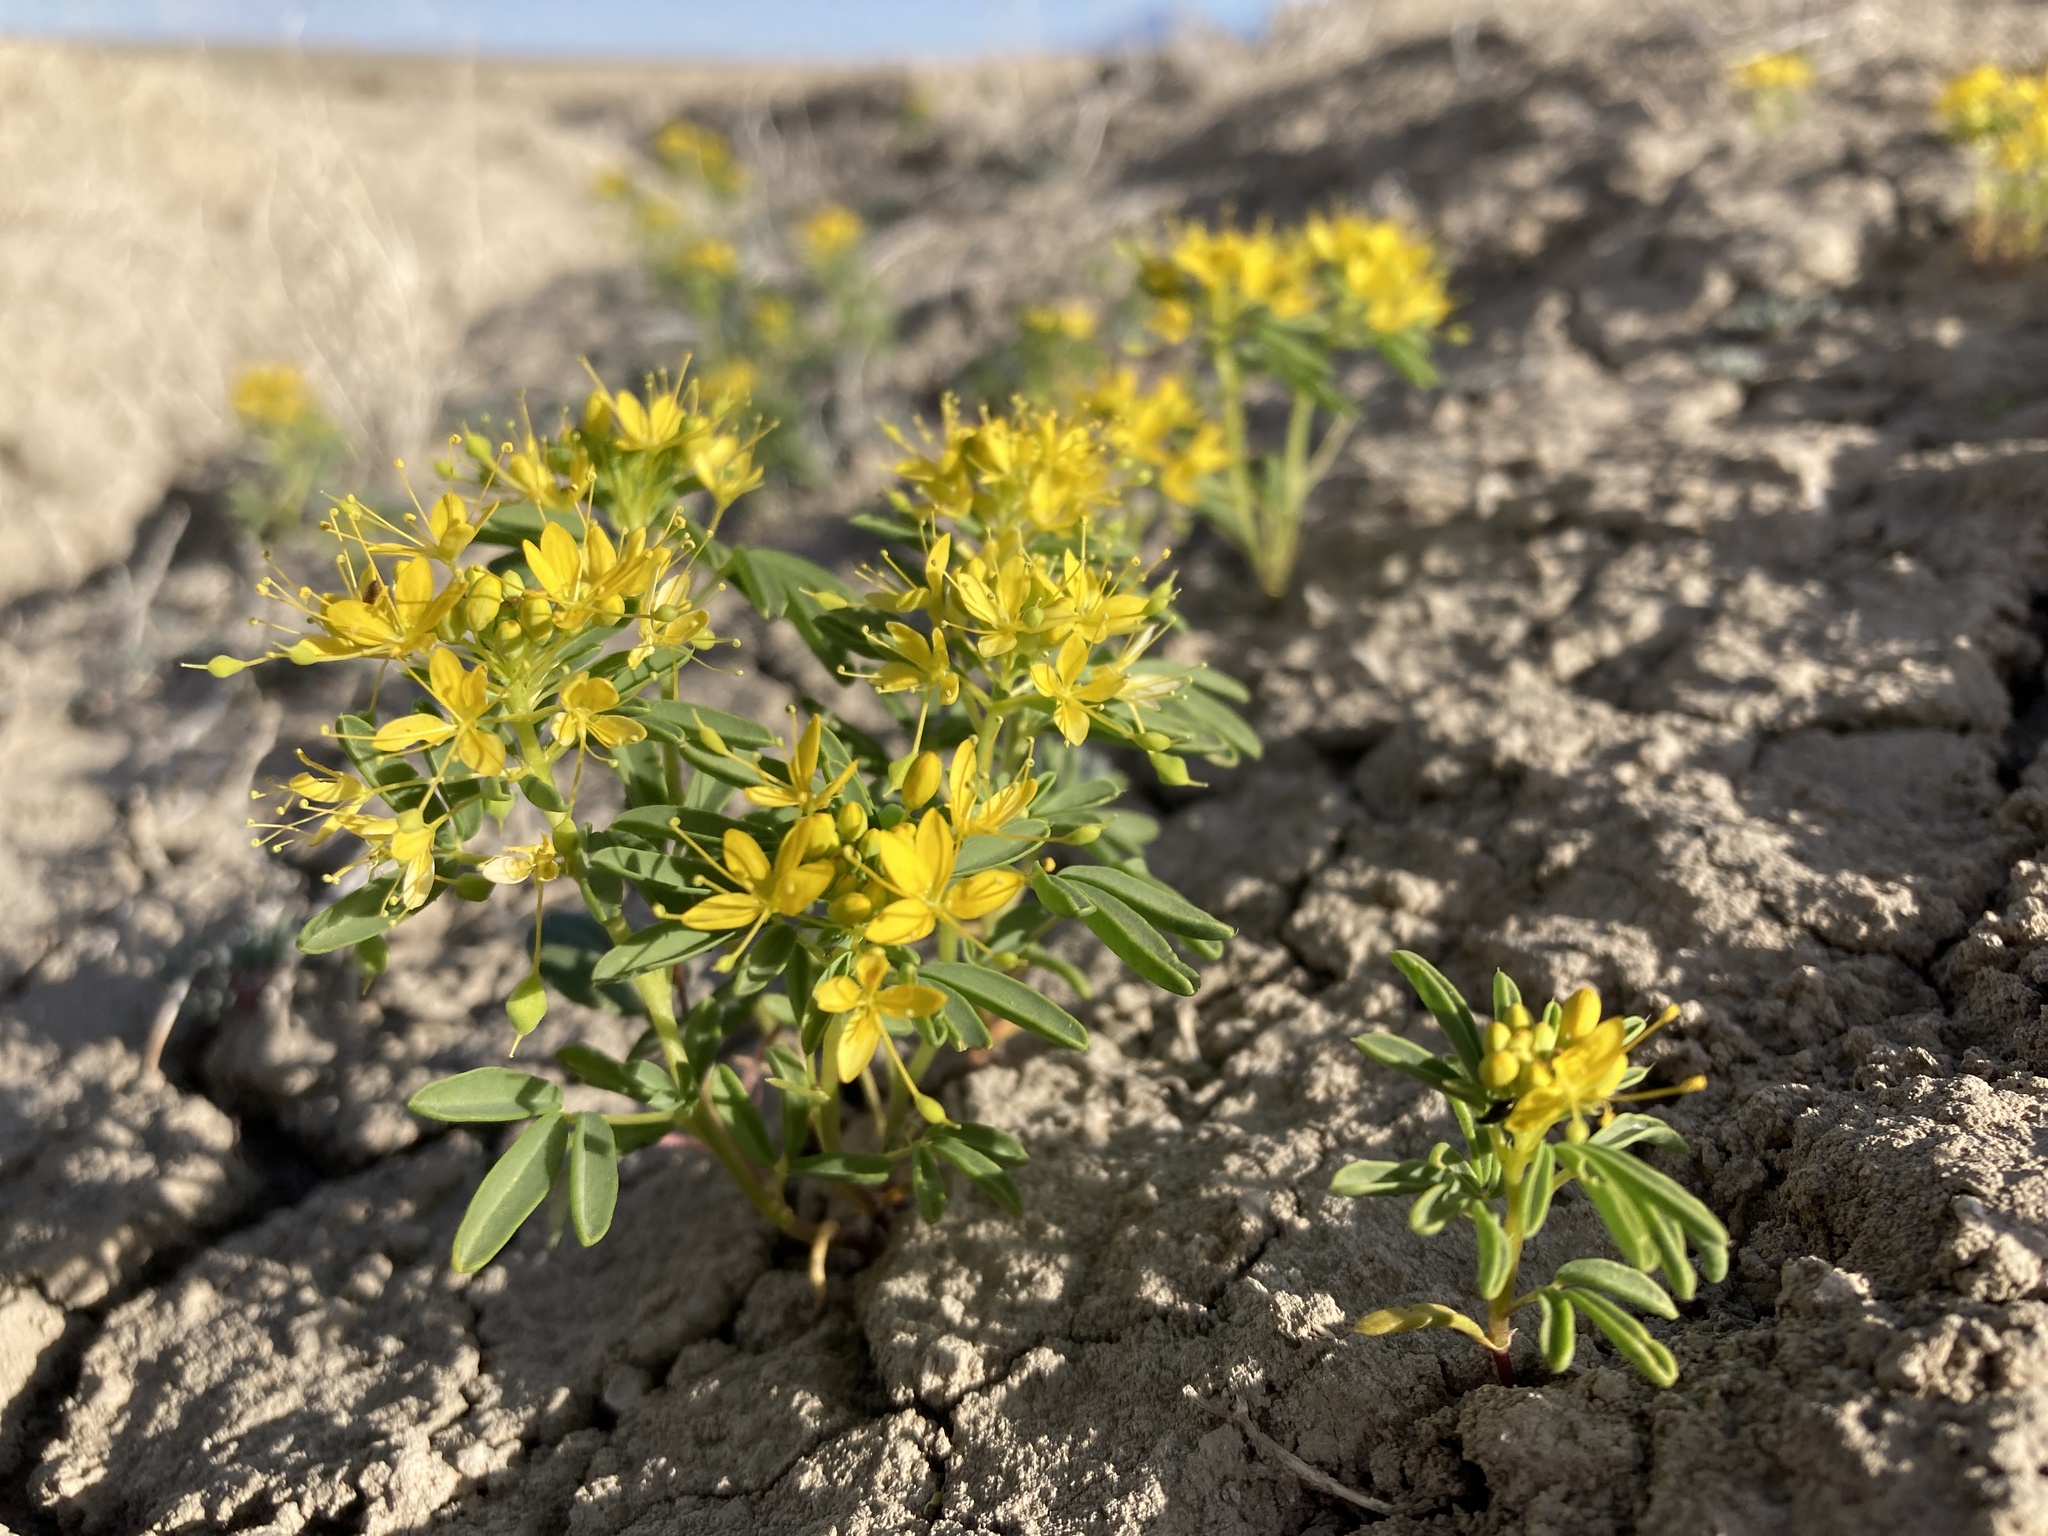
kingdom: Plantae
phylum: Tracheophyta
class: Magnoliopsida
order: Brassicales
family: Cleomaceae
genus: Cleomella
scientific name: Cleomella lutea
